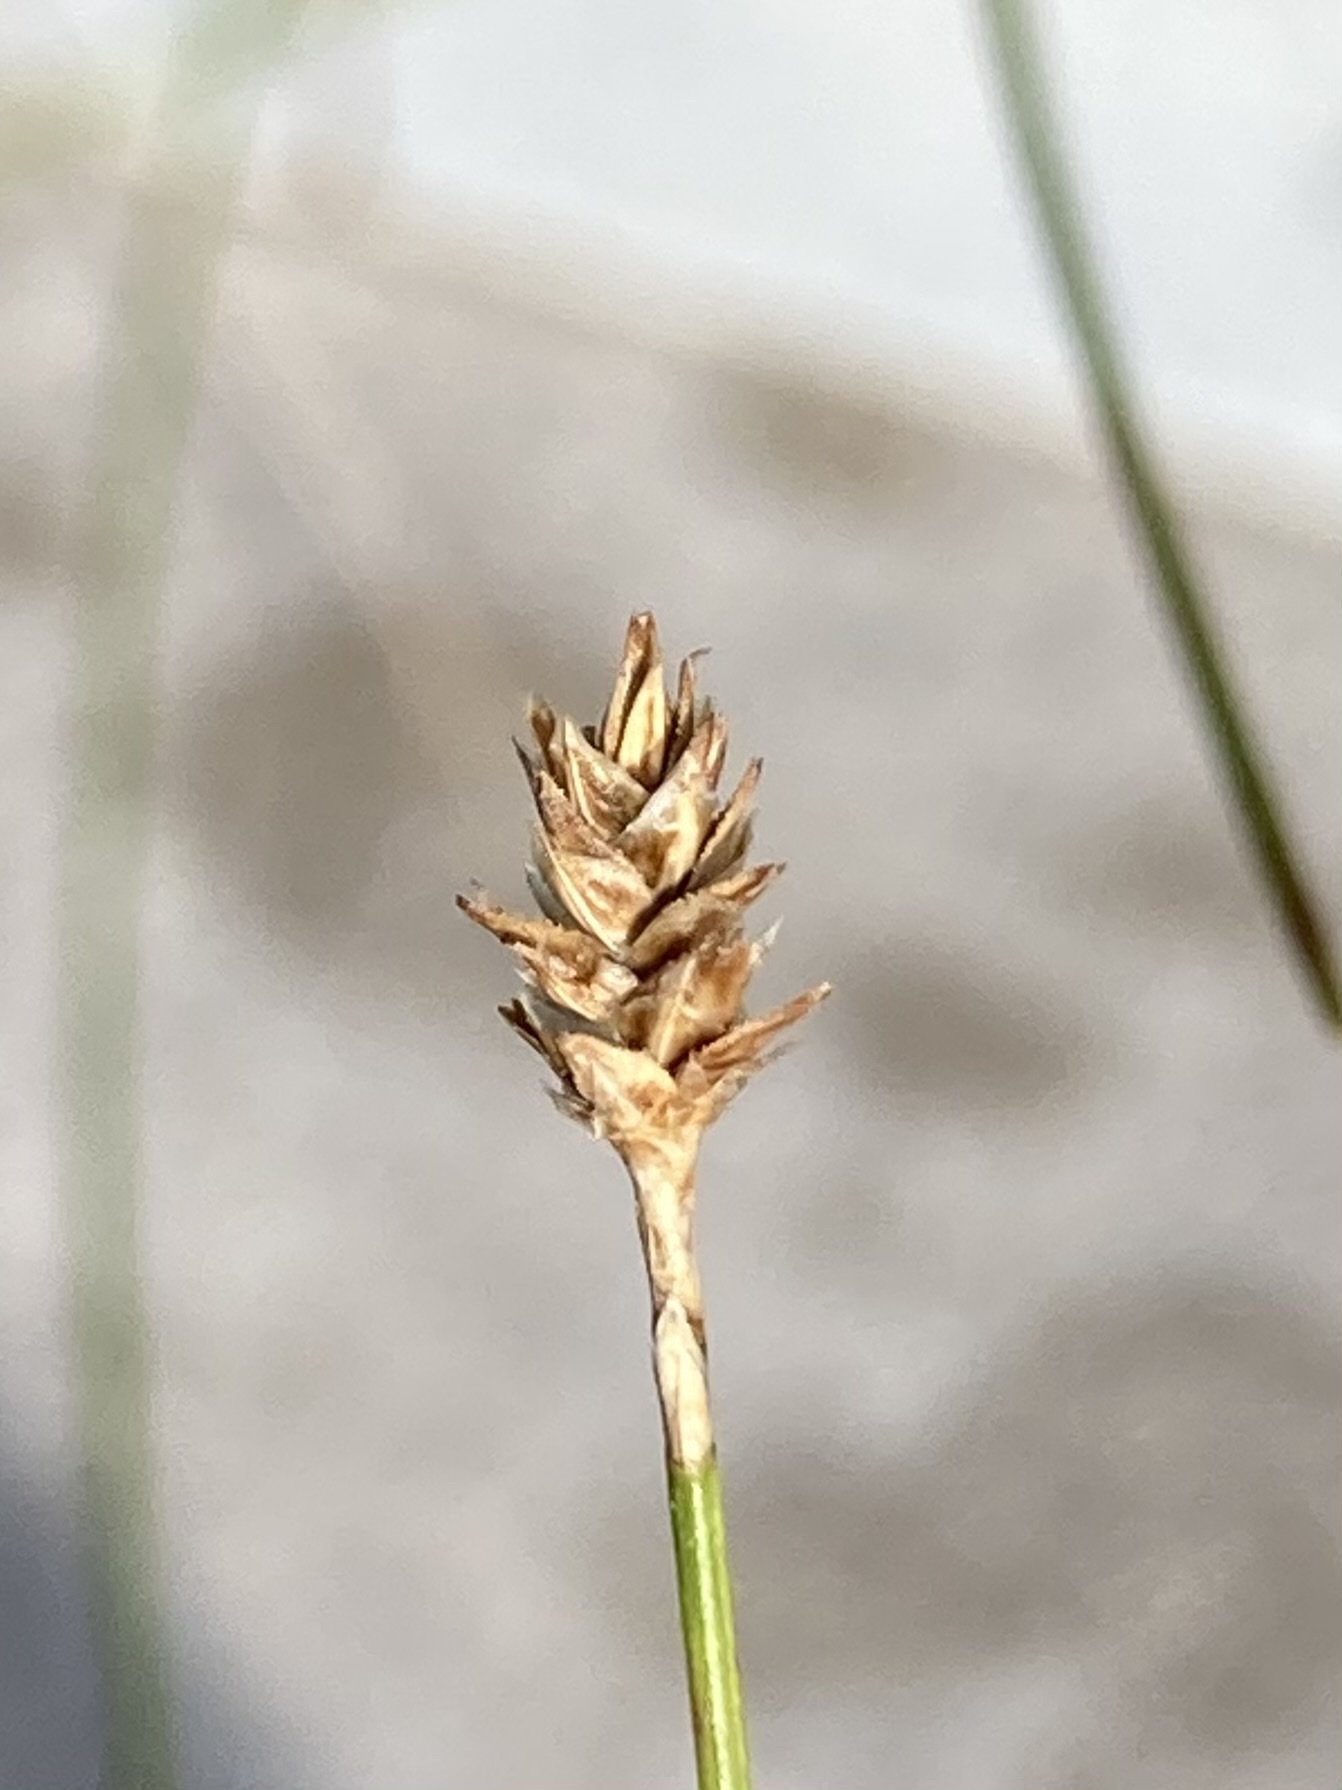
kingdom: Plantae
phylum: Tracheophyta
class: Liliopsida
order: Poales
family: Cyperaceae
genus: Carex
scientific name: Carex exilis
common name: Coastal sedge
